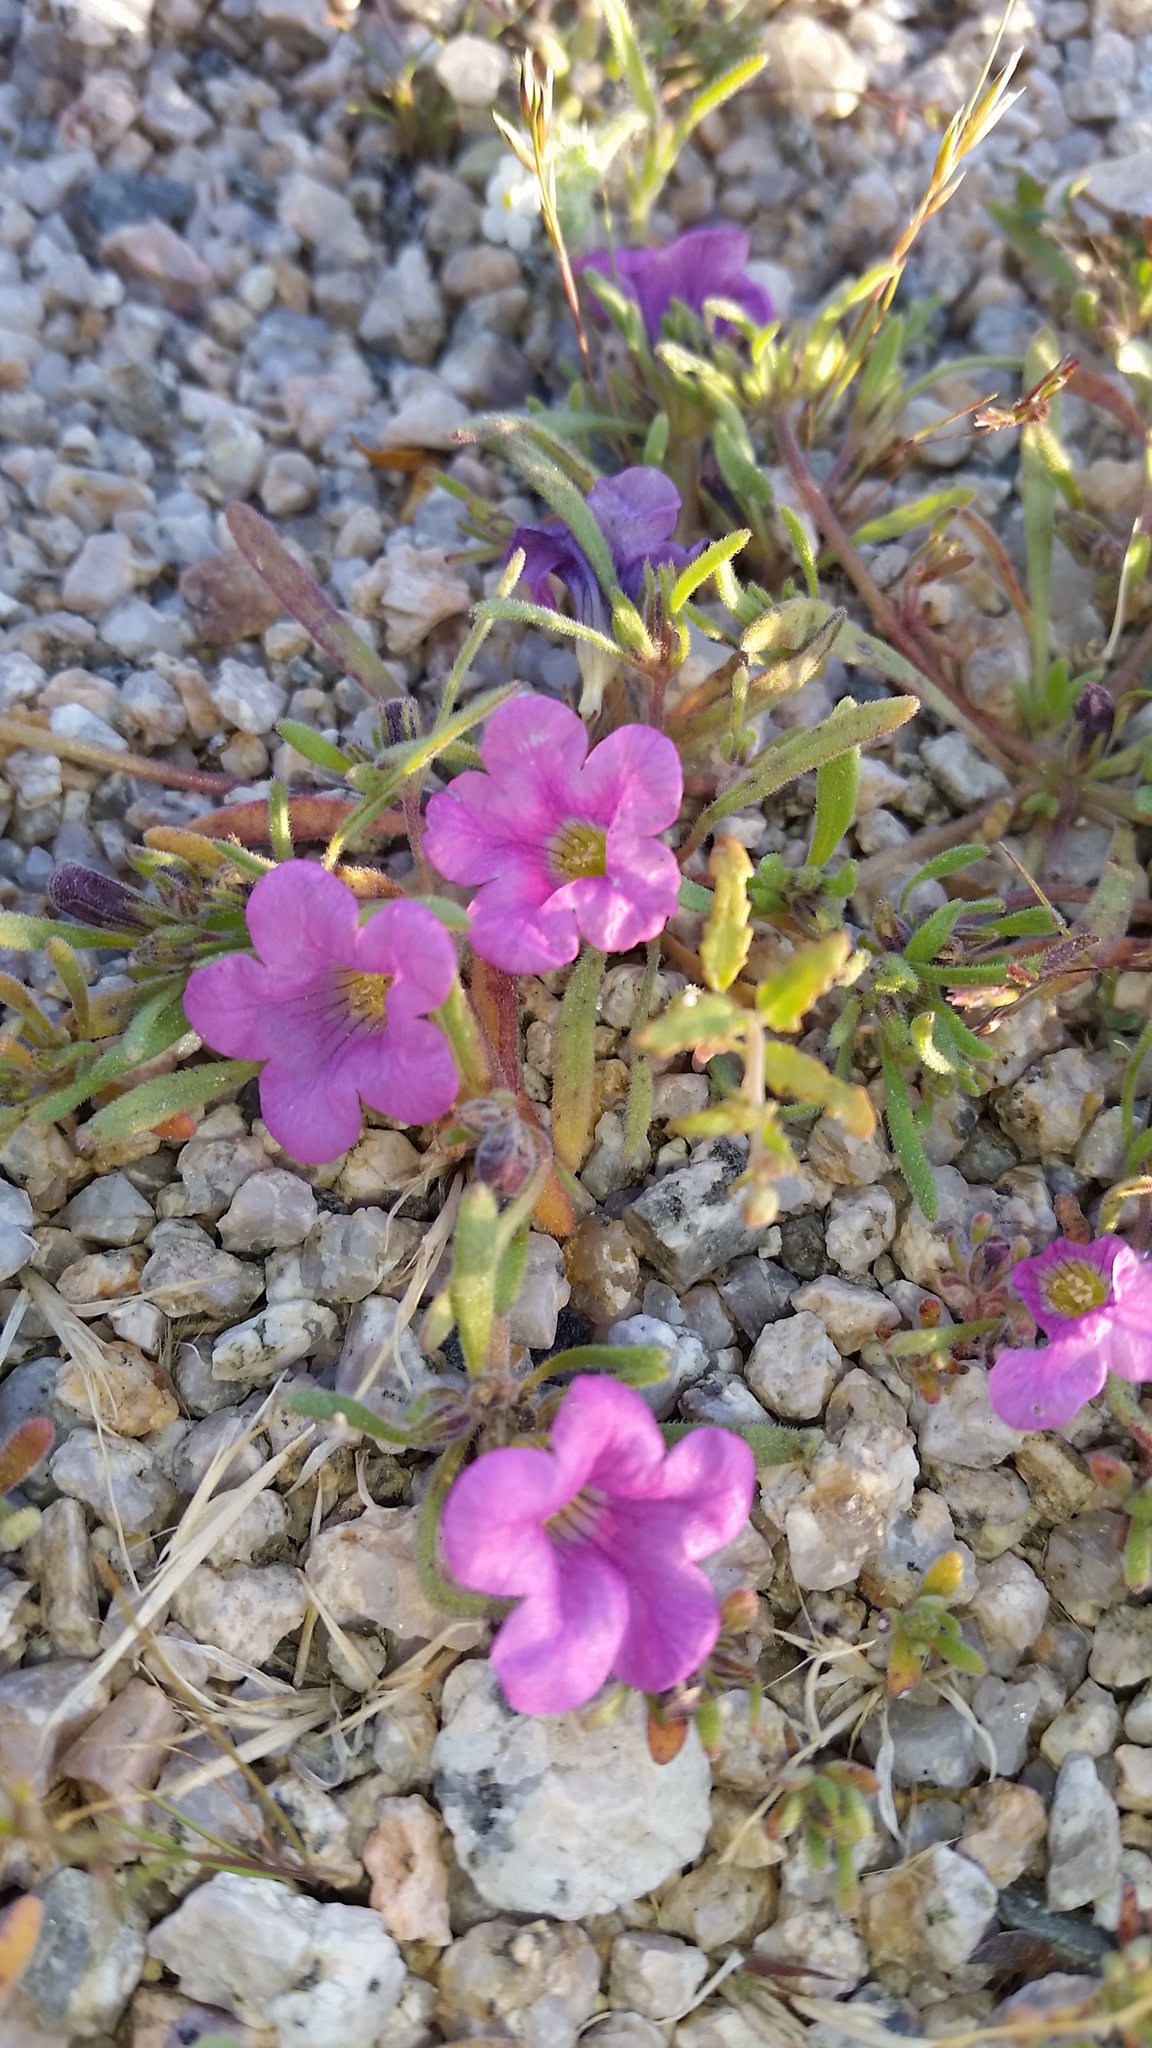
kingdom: Plantae
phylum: Tracheophyta
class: Magnoliopsida
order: Boraginales
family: Namaceae
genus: Nama
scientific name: Nama demissa
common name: Leafy nama
